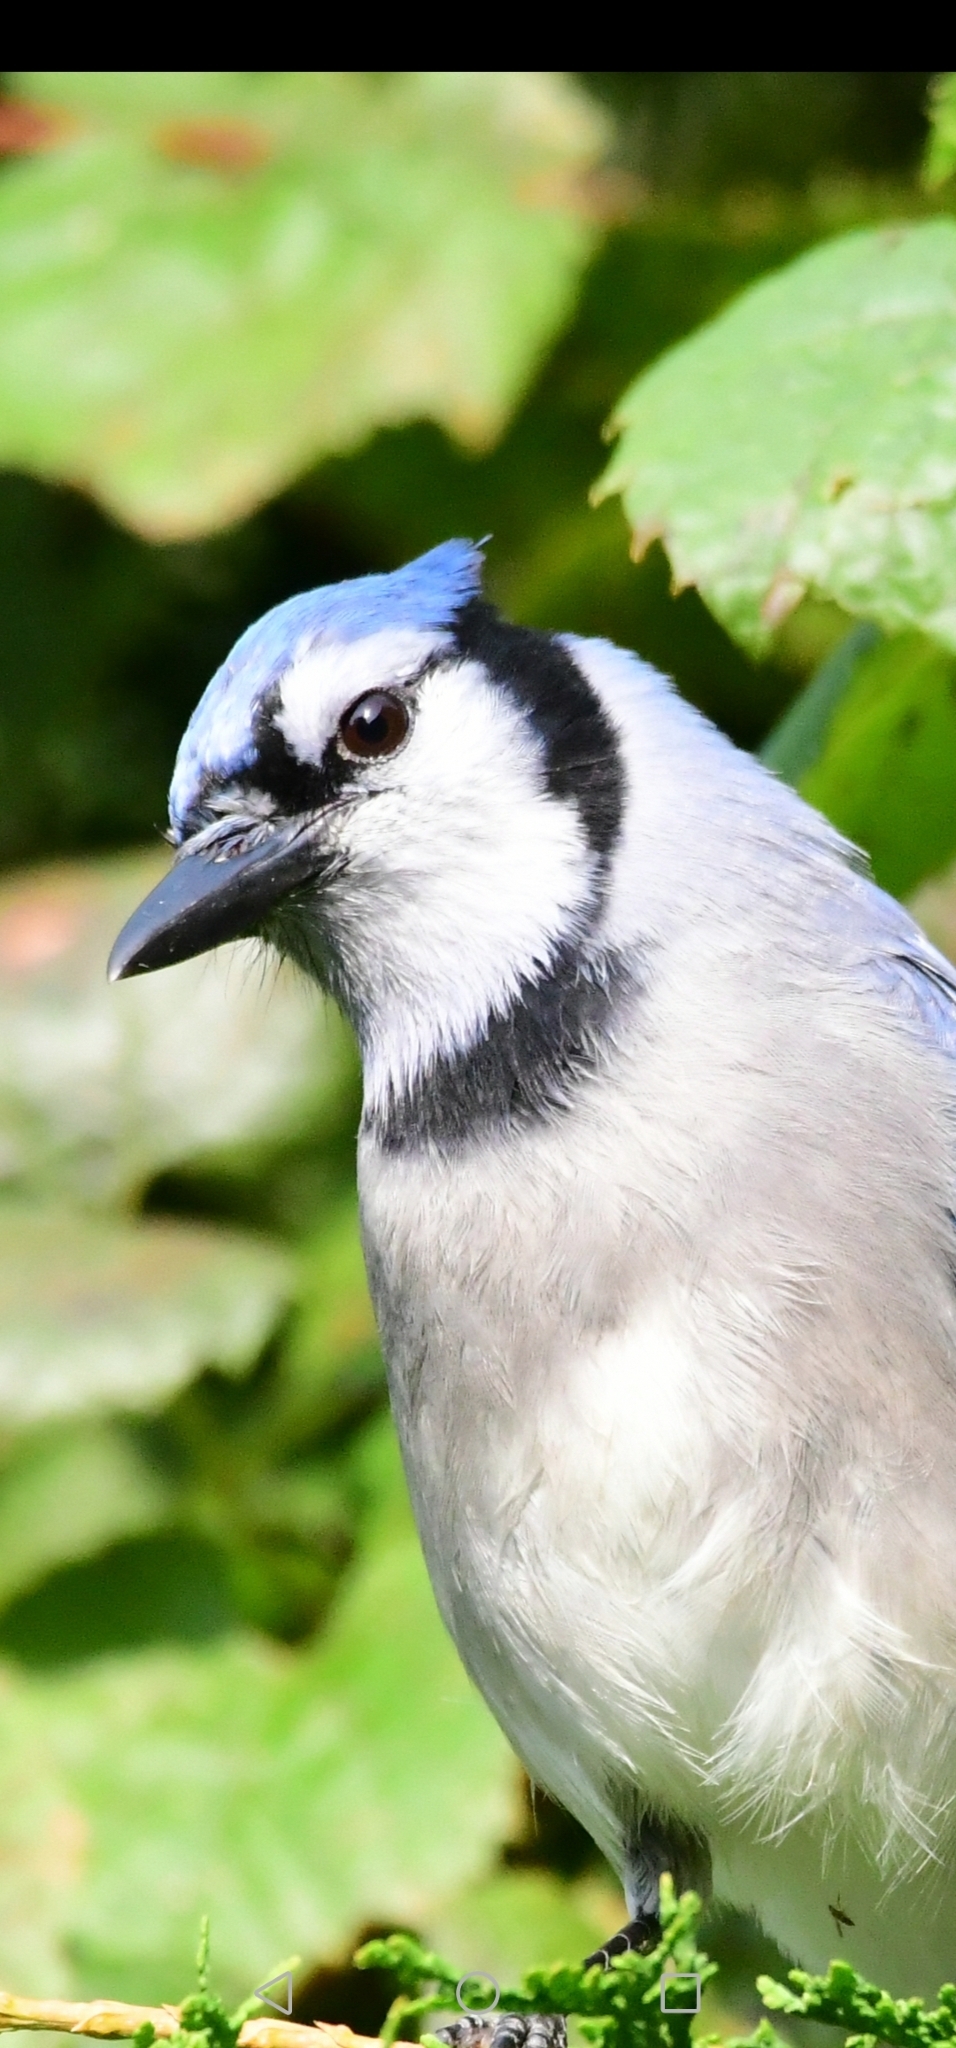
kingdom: Animalia
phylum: Chordata
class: Aves
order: Passeriformes
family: Corvidae
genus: Cyanocitta
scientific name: Cyanocitta cristata
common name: Blue jay
